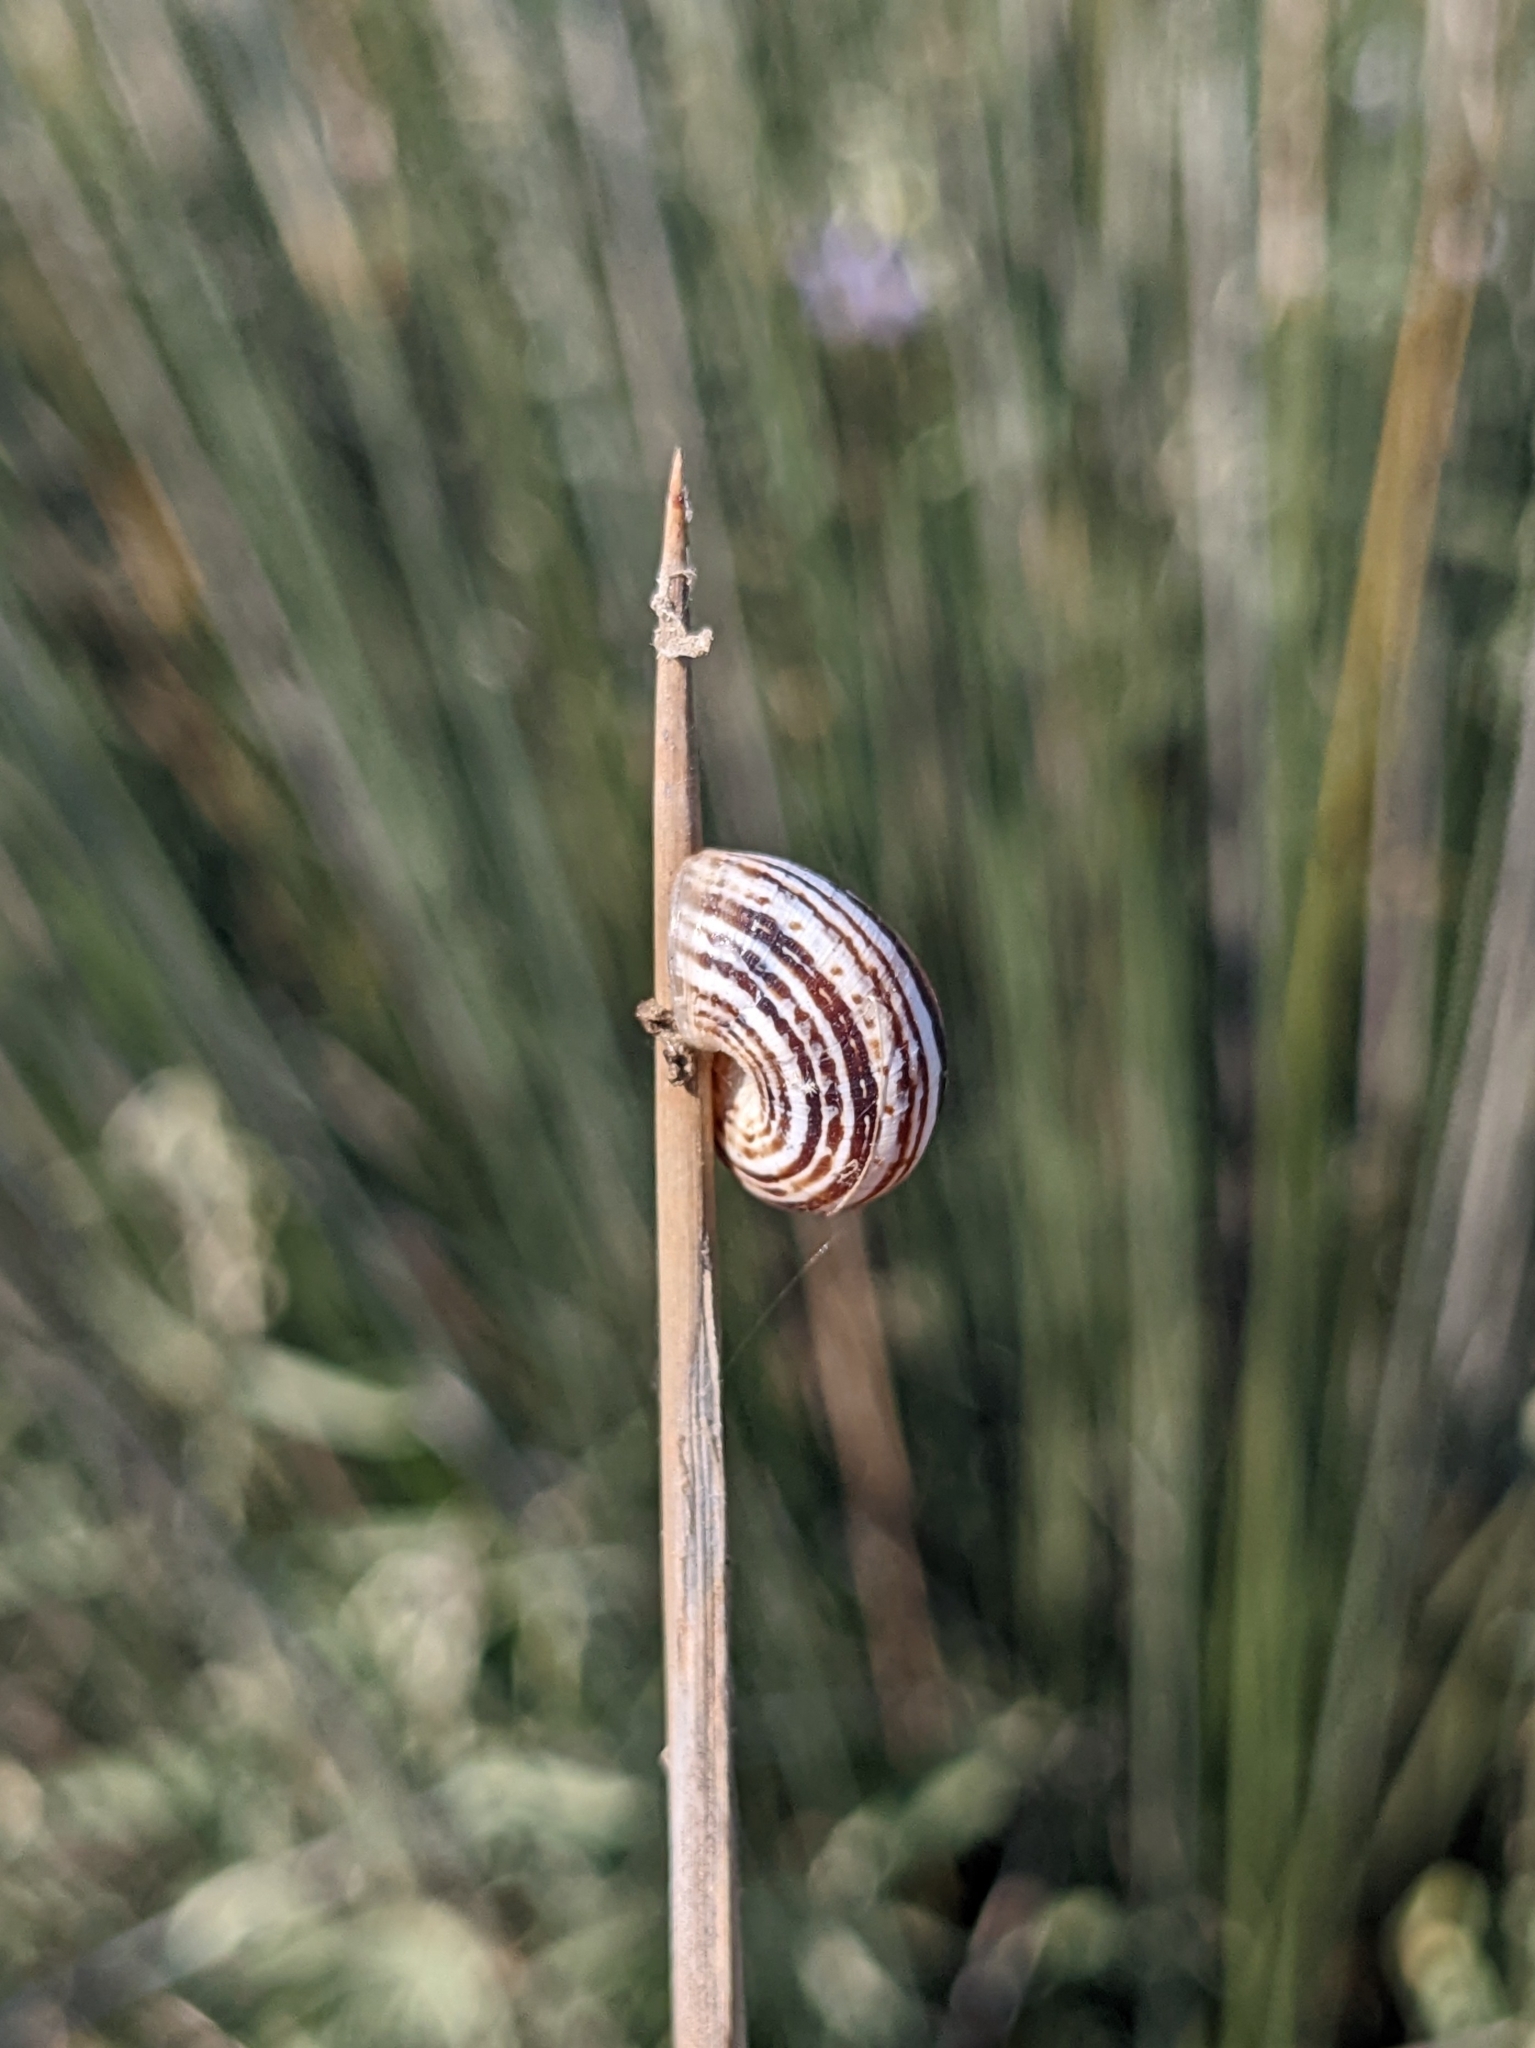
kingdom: Animalia
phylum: Mollusca
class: Gastropoda
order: Stylommatophora
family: Geomitridae
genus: Xeropicta
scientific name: Xeropicta krynickii
